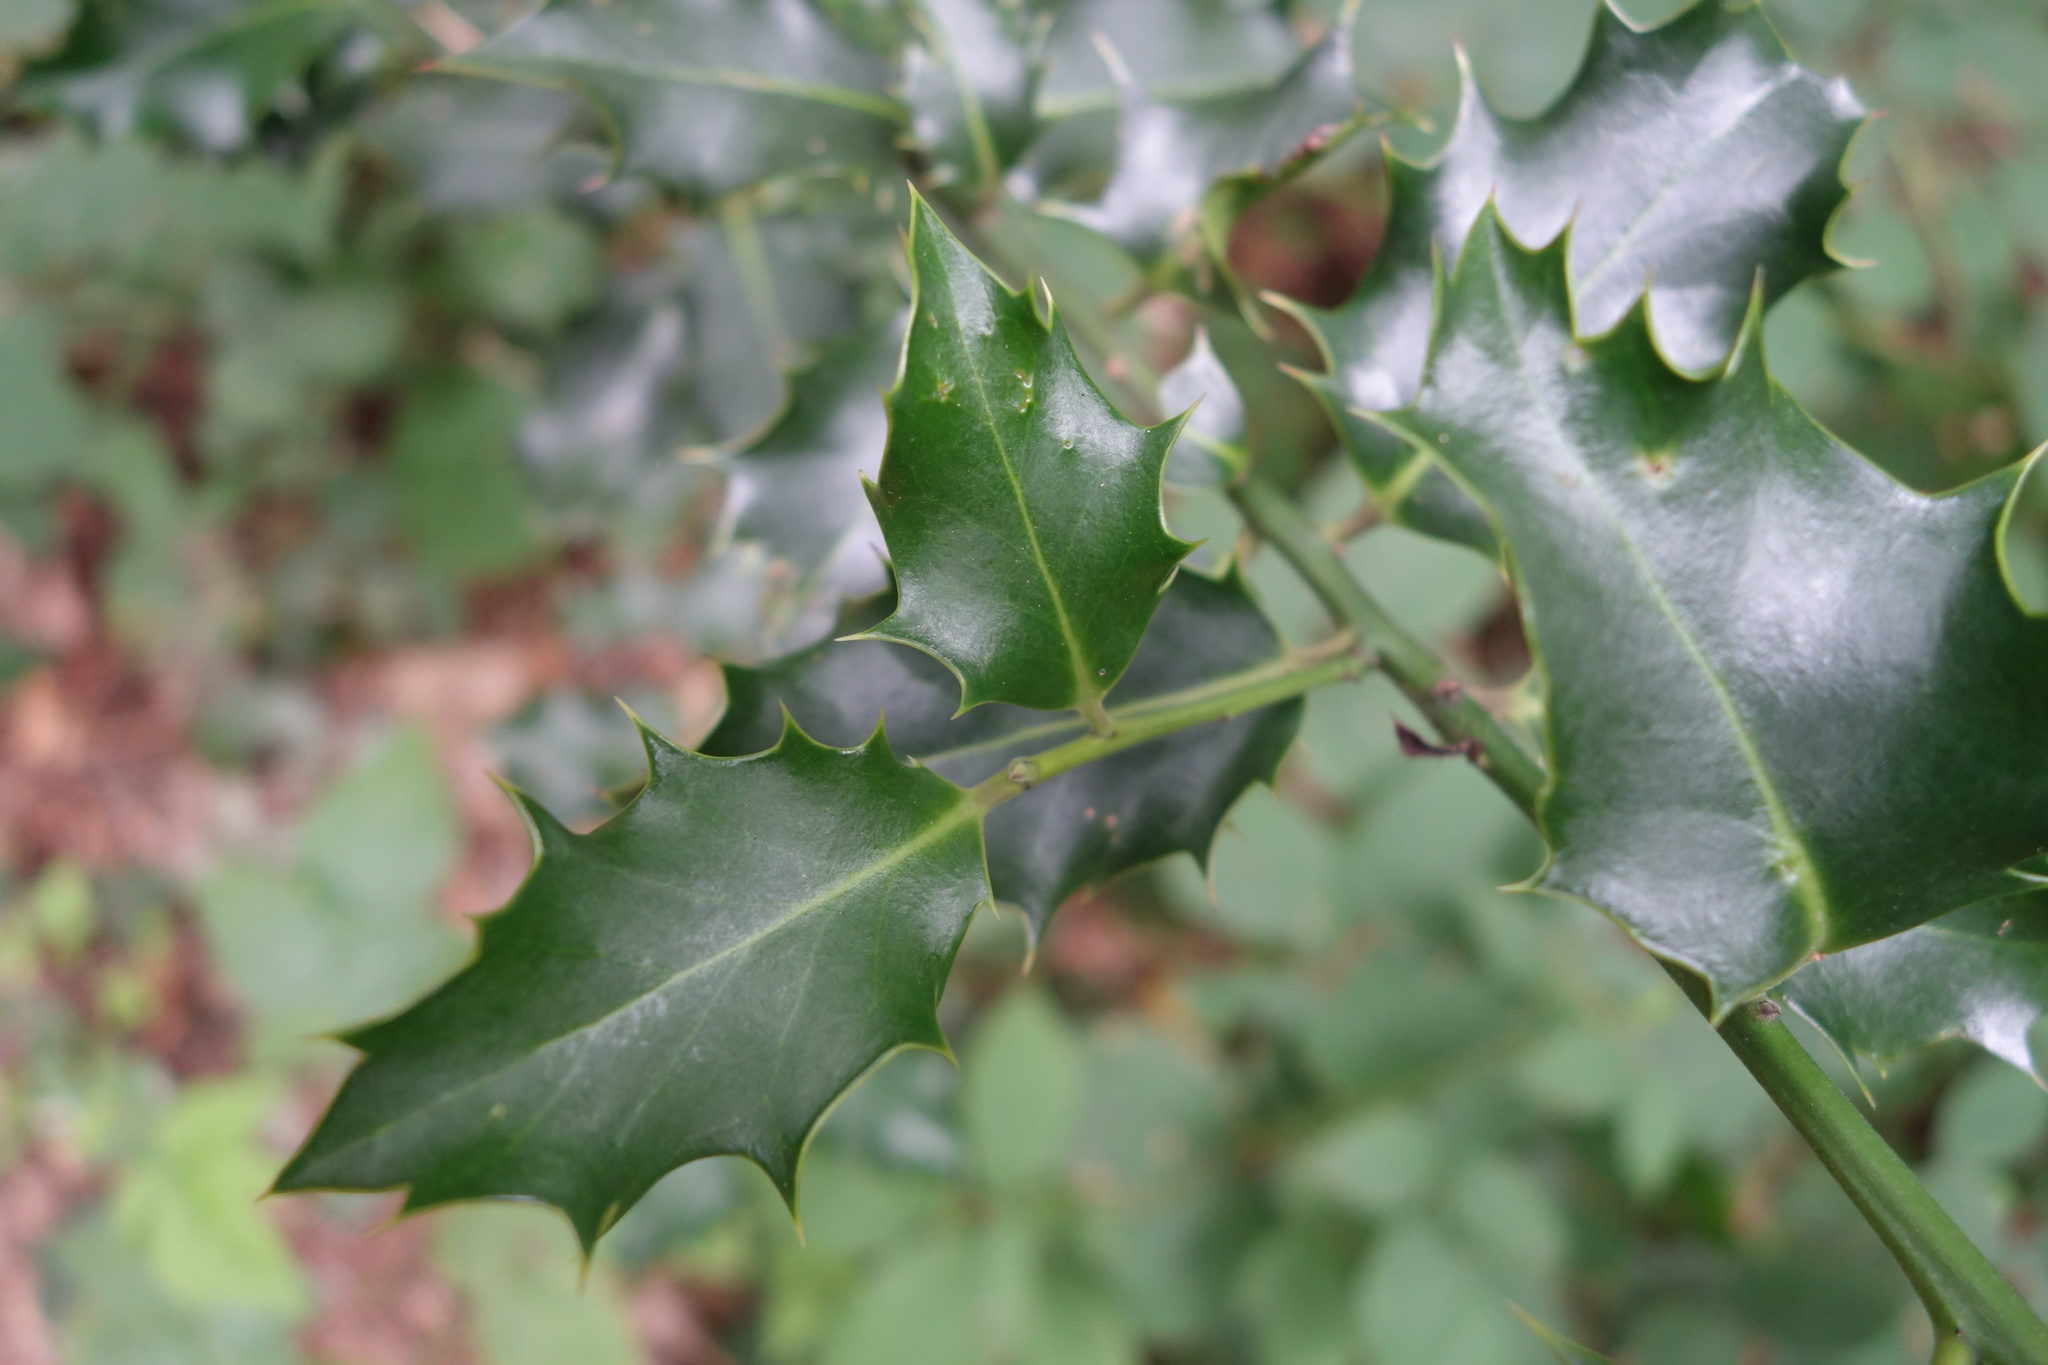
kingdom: Plantae
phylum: Tracheophyta
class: Magnoliopsida
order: Aquifoliales
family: Aquifoliaceae
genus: Ilex
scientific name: Ilex aquifolium
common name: English holly
